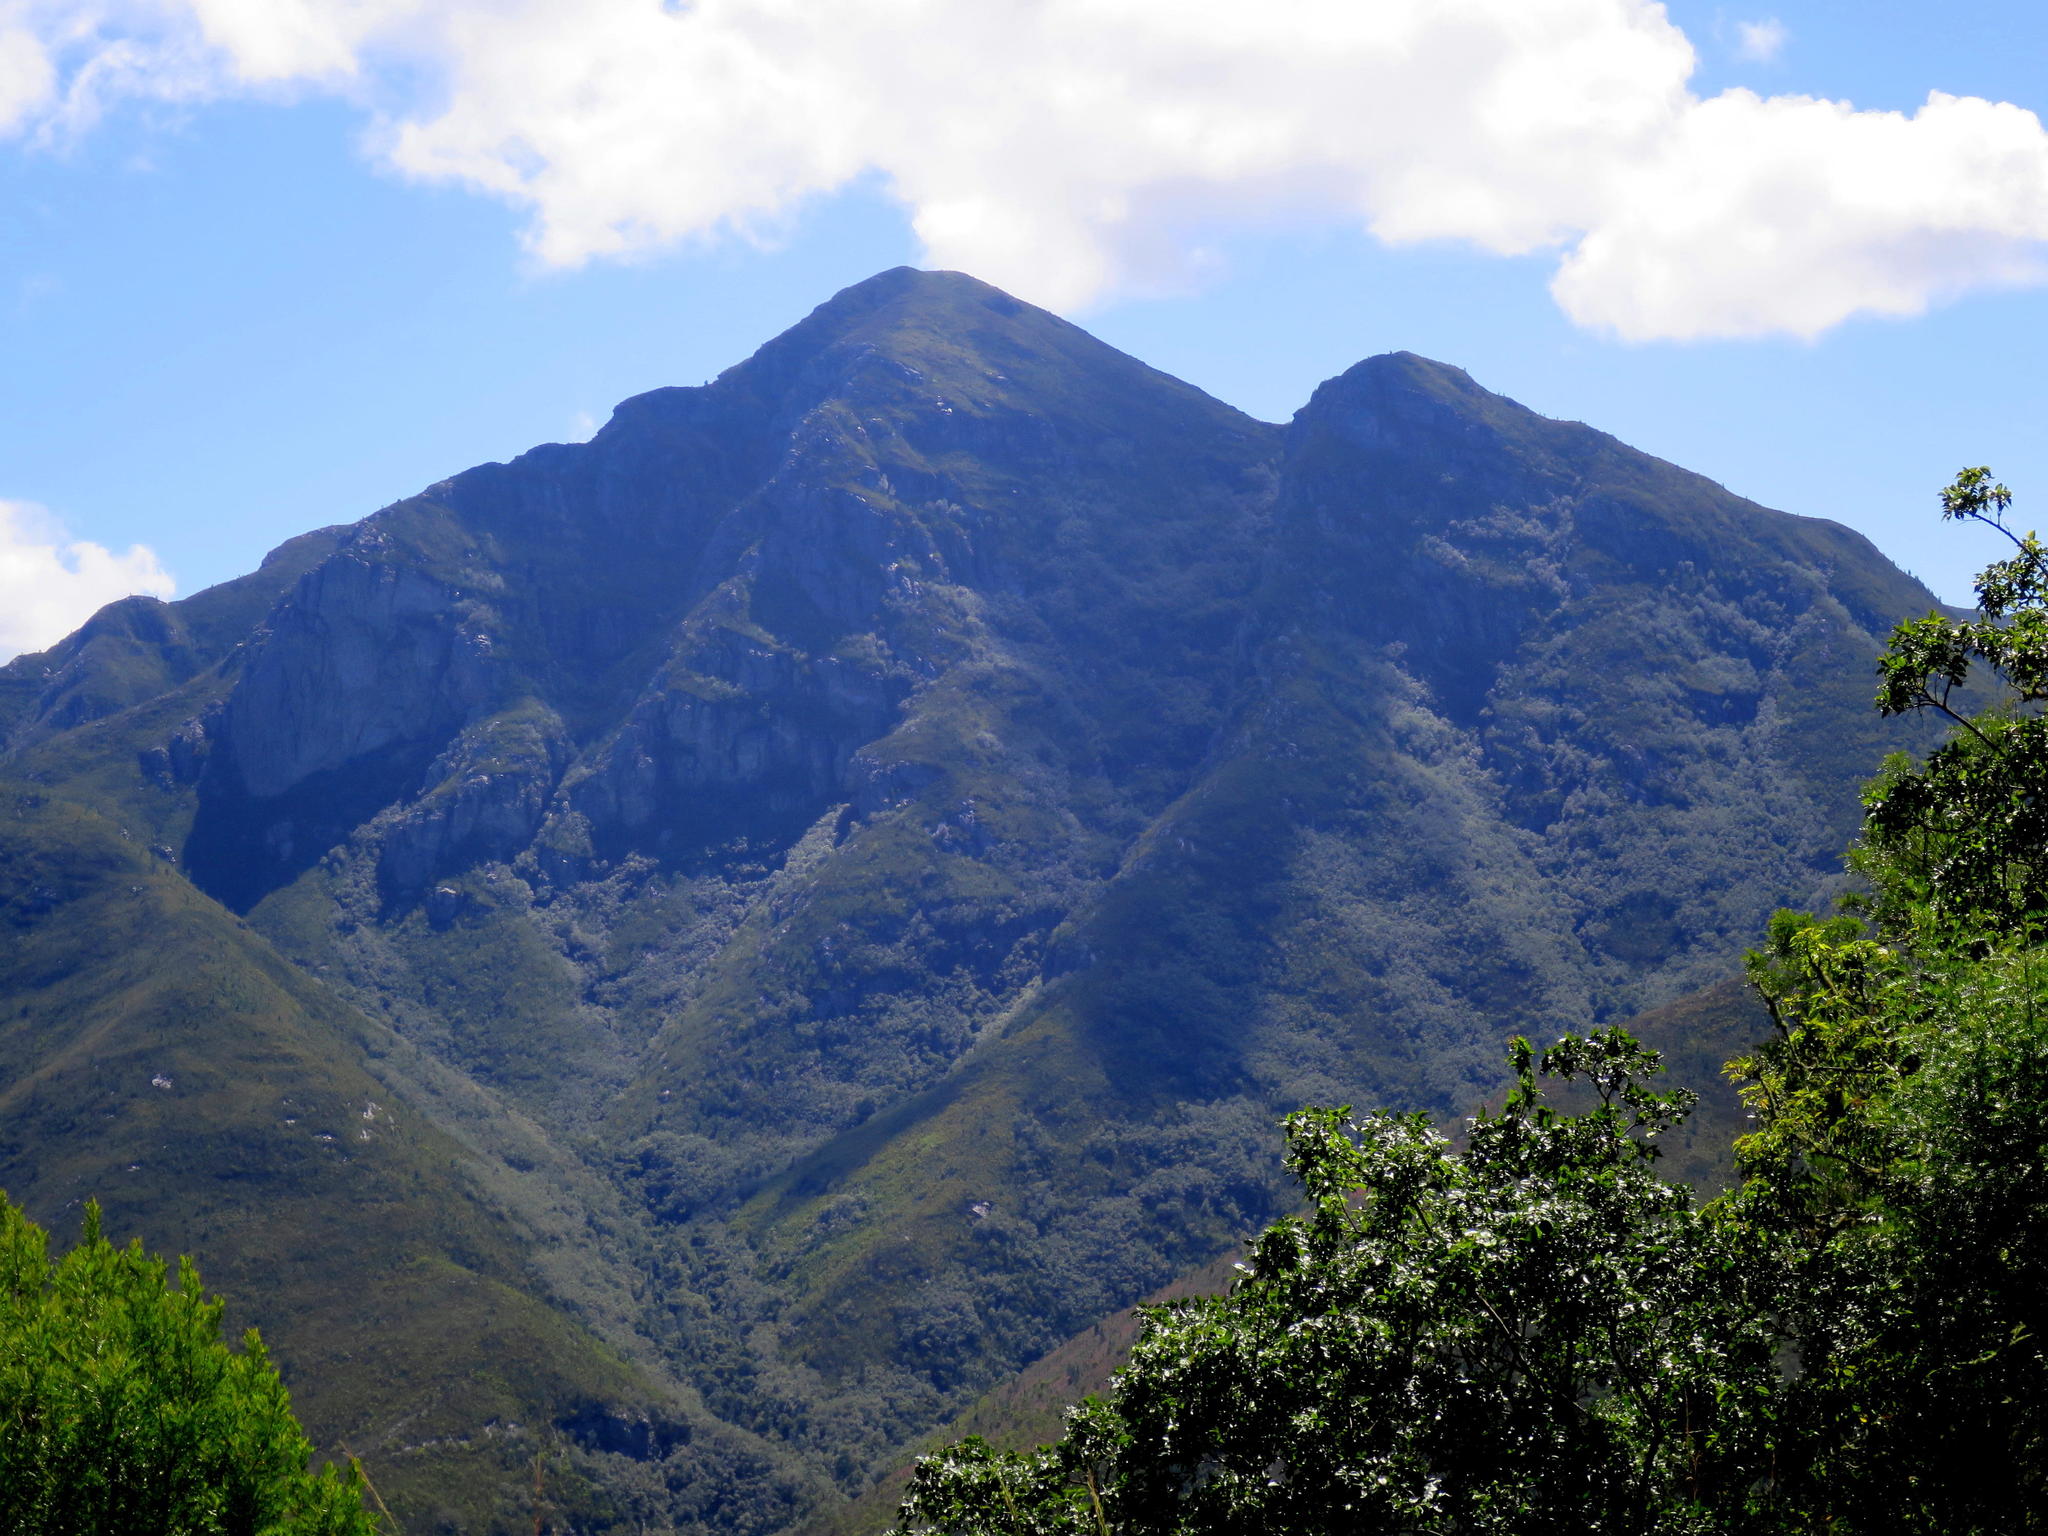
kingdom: Plantae
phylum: Tracheophyta
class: Magnoliopsida
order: Sapindales
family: Anacardiaceae
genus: Searsia
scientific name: Searsia chirindensis
